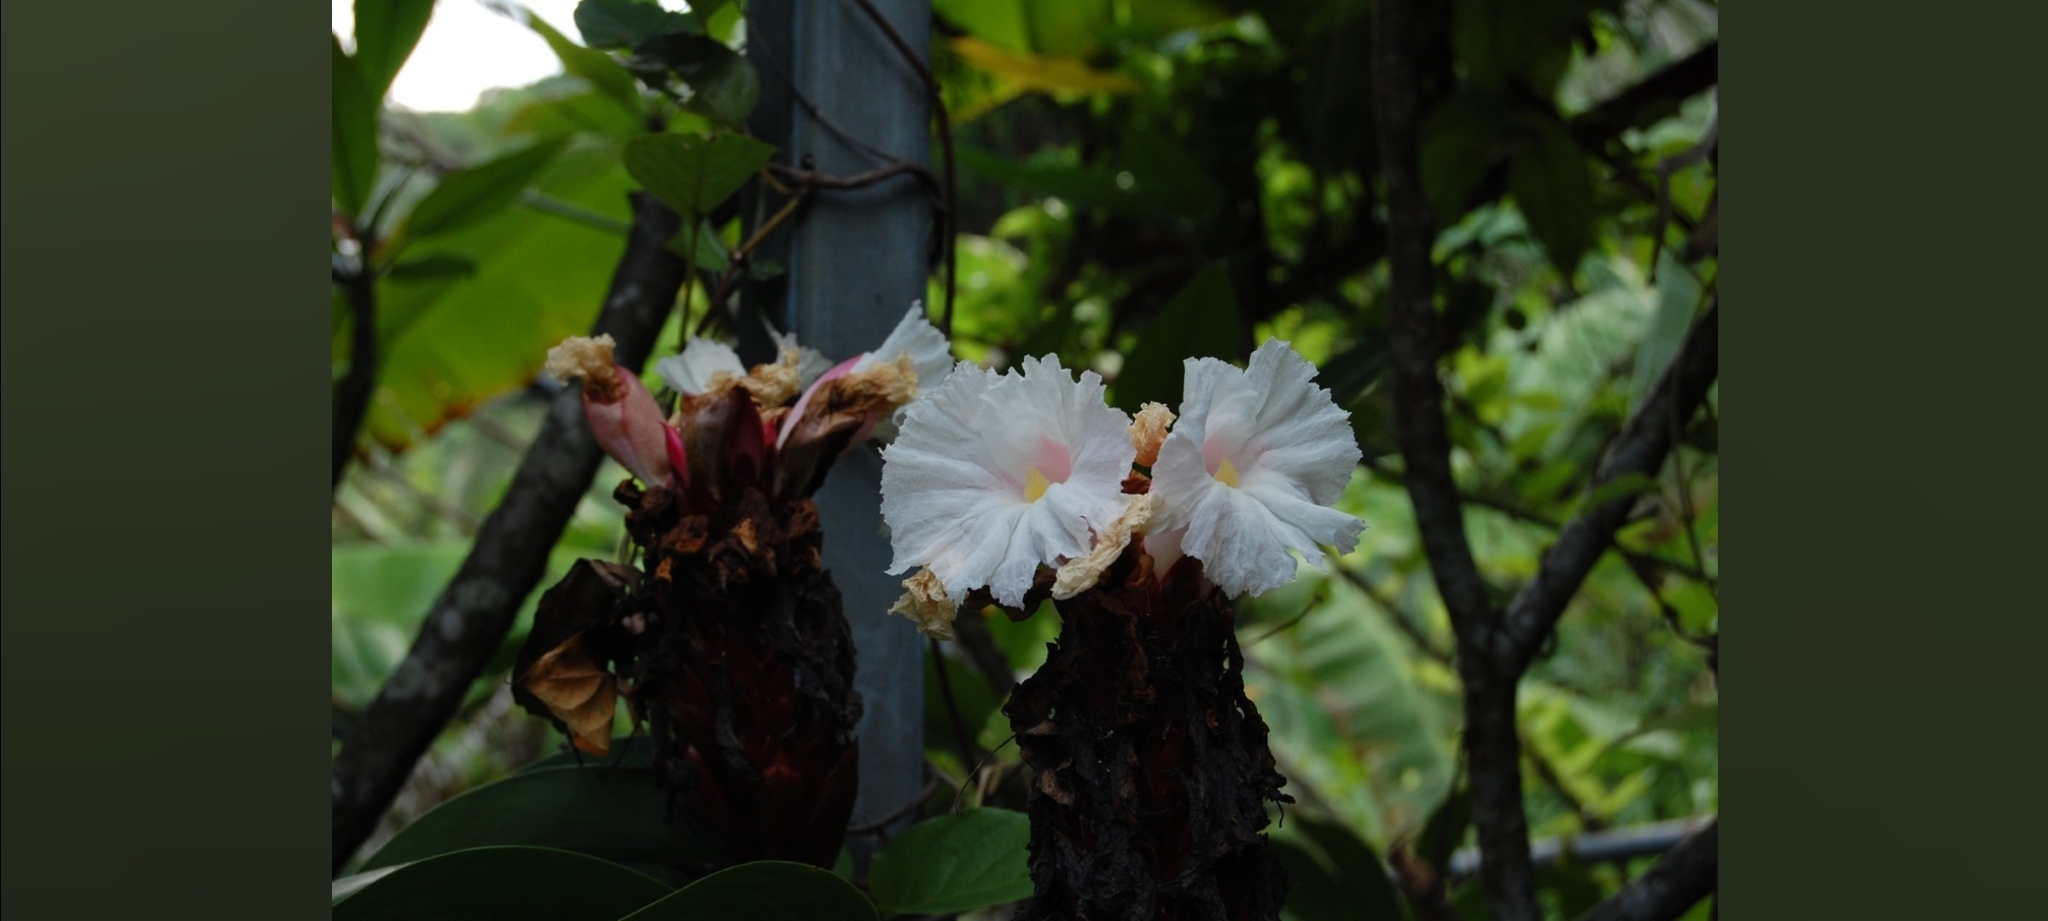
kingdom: Plantae
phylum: Tracheophyta
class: Liliopsida
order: Zingiberales
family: Costaceae
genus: Hellenia
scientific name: Hellenia speciosa
